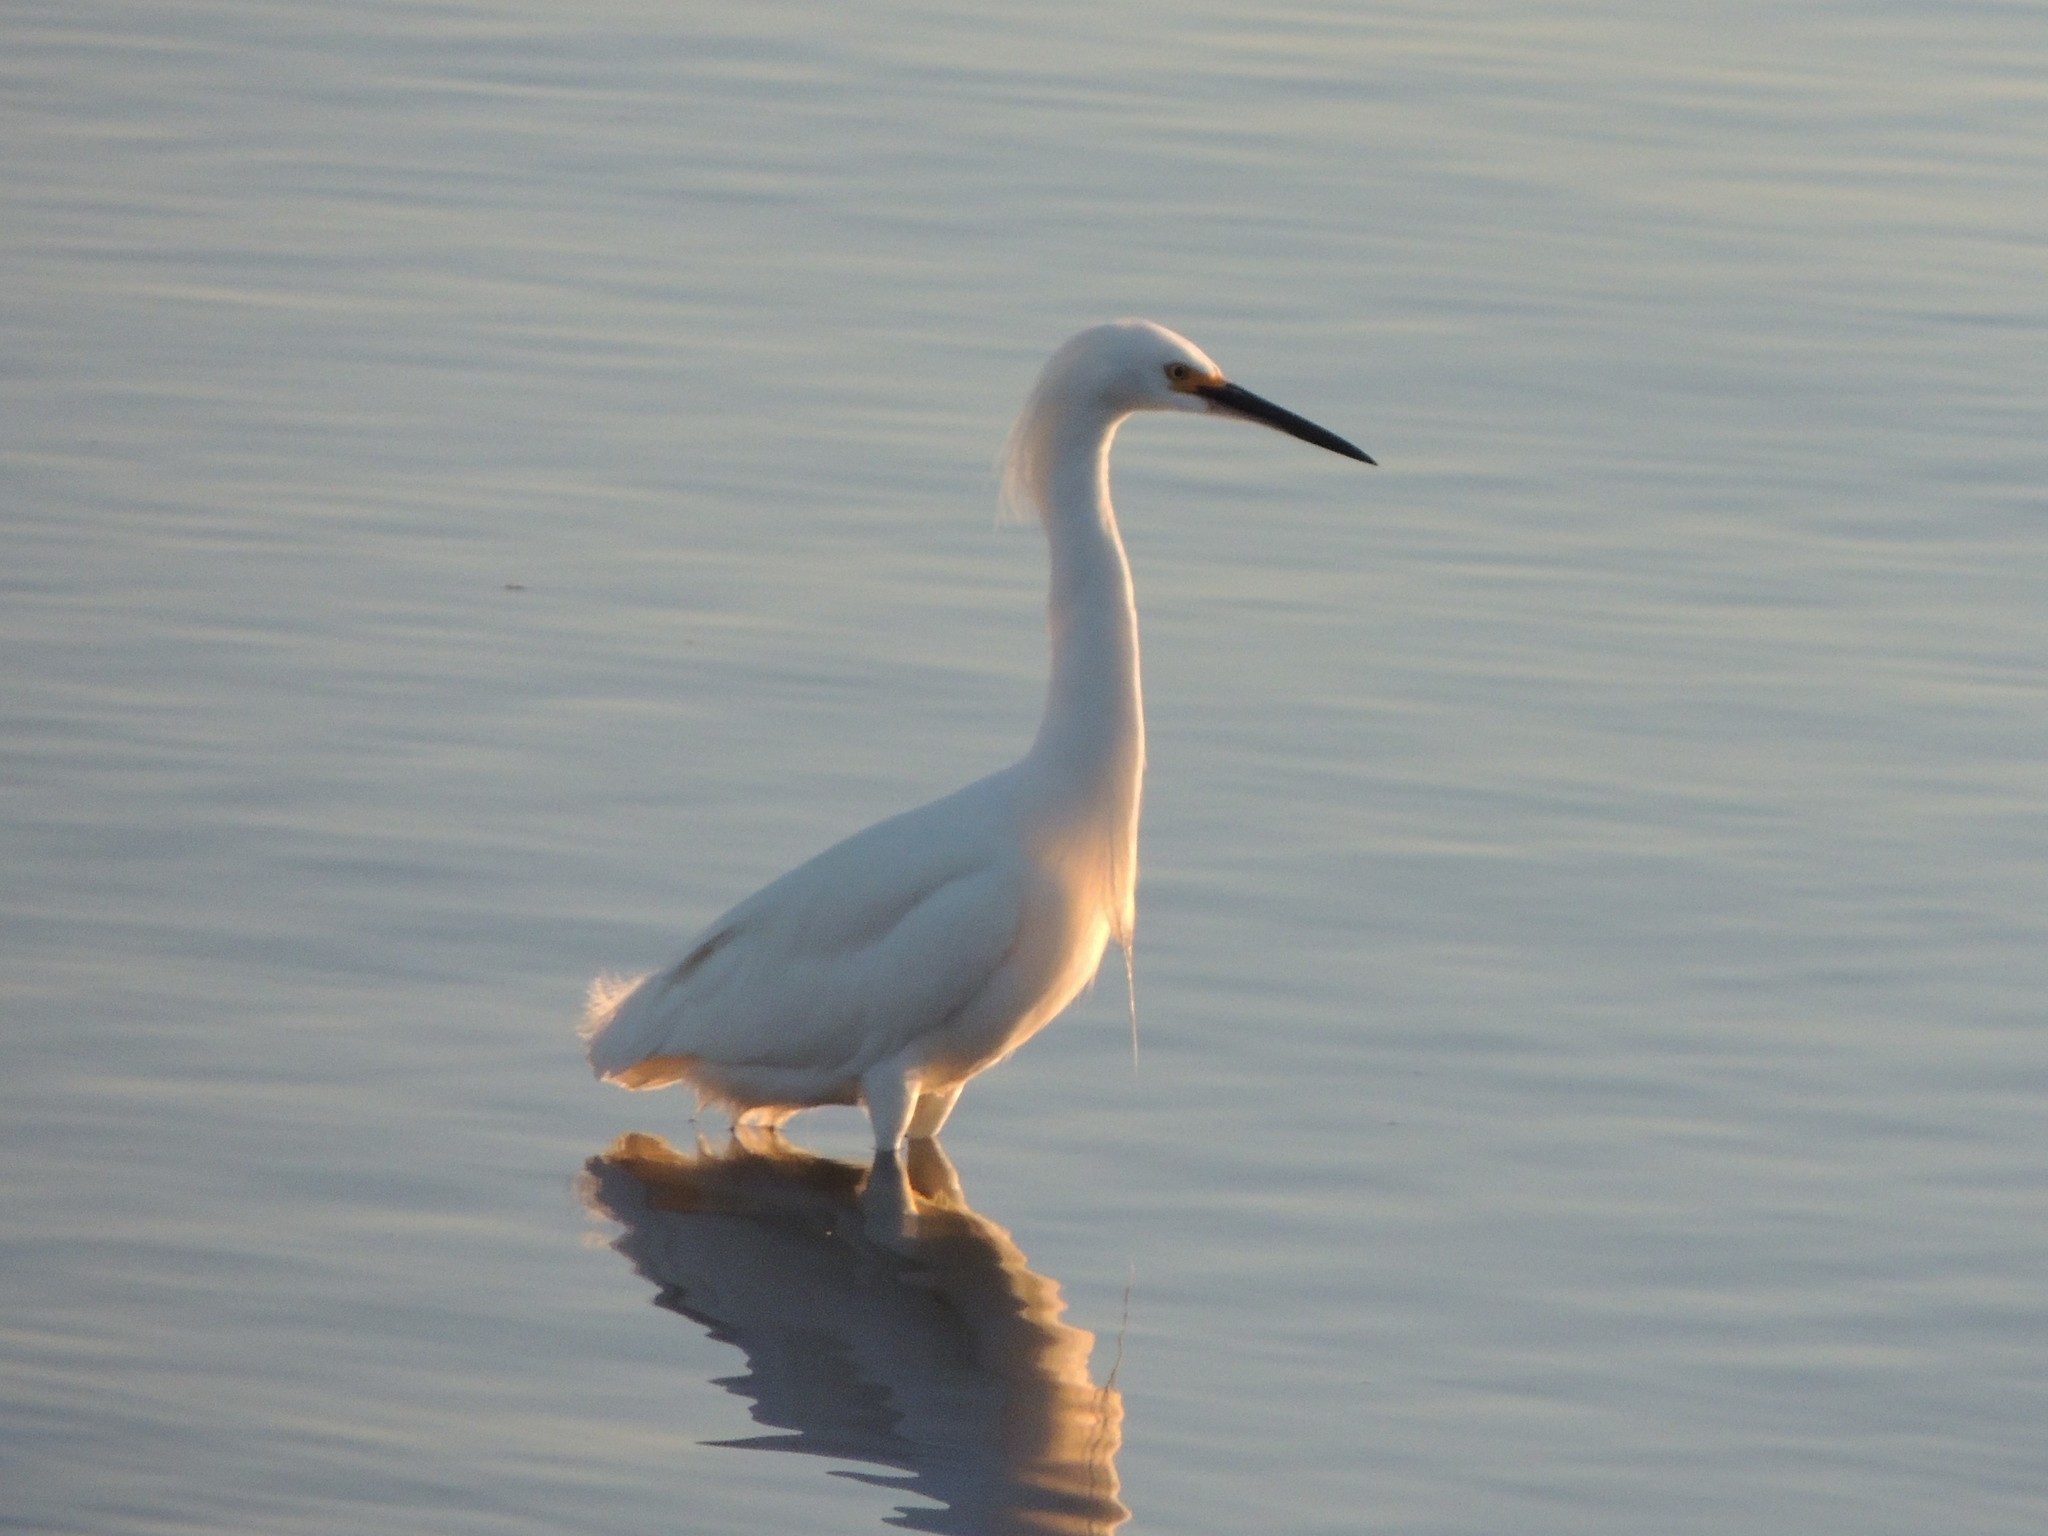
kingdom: Animalia
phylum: Chordata
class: Aves
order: Pelecaniformes
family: Ardeidae
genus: Egretta
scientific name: Egretta thula
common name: Snowy egret
